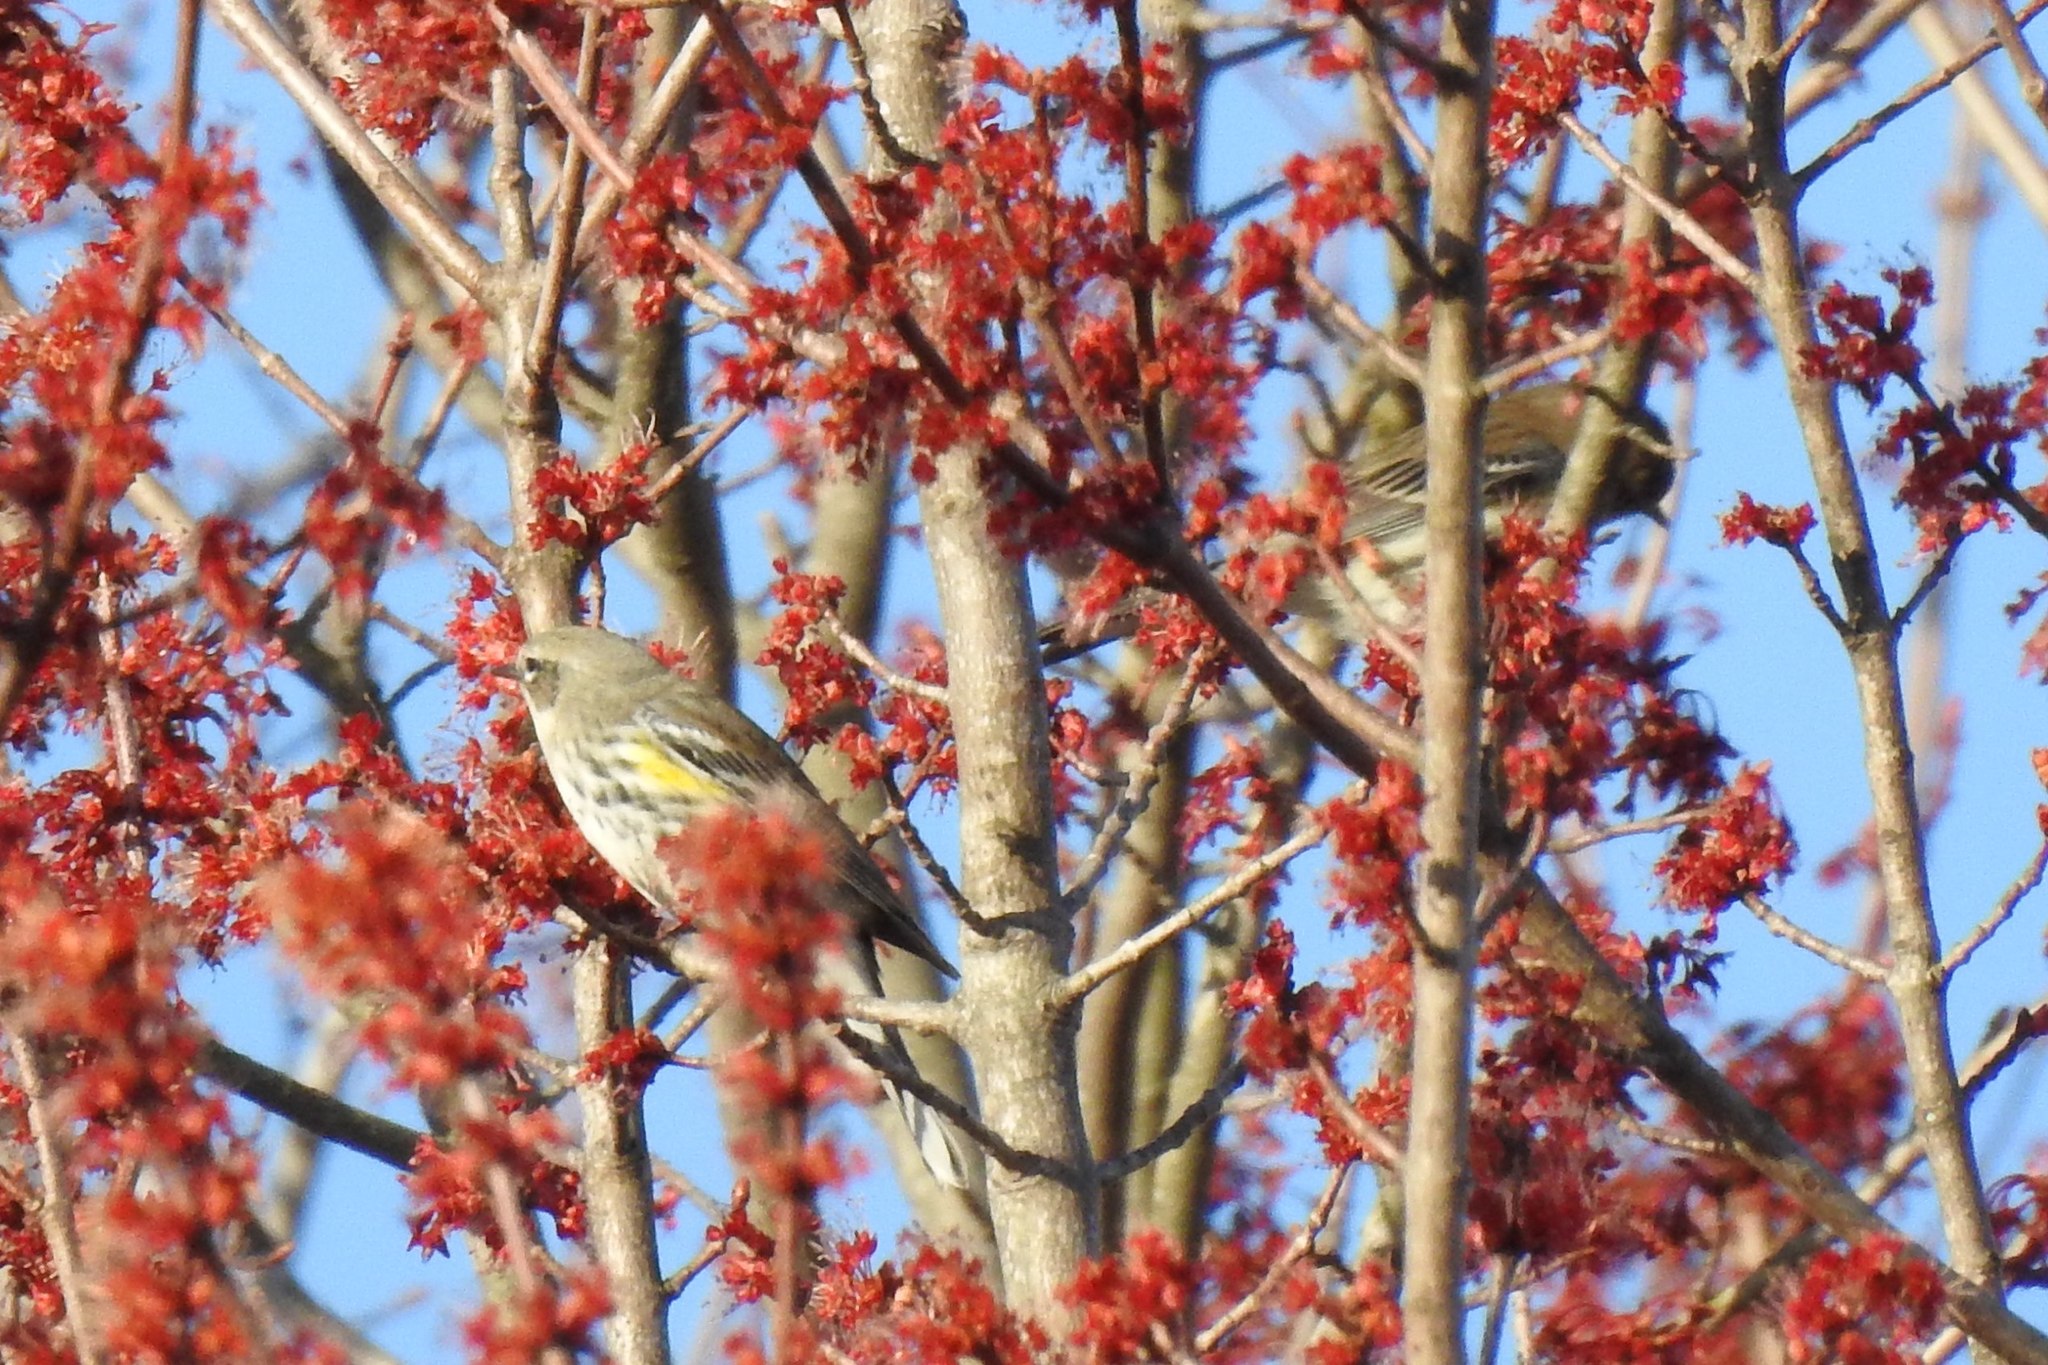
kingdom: Animalia
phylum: Chordata
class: Aves
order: Passeriformes
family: Parulidae
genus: Setophaga
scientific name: Setophaga coronata
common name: Myrtle warbler
